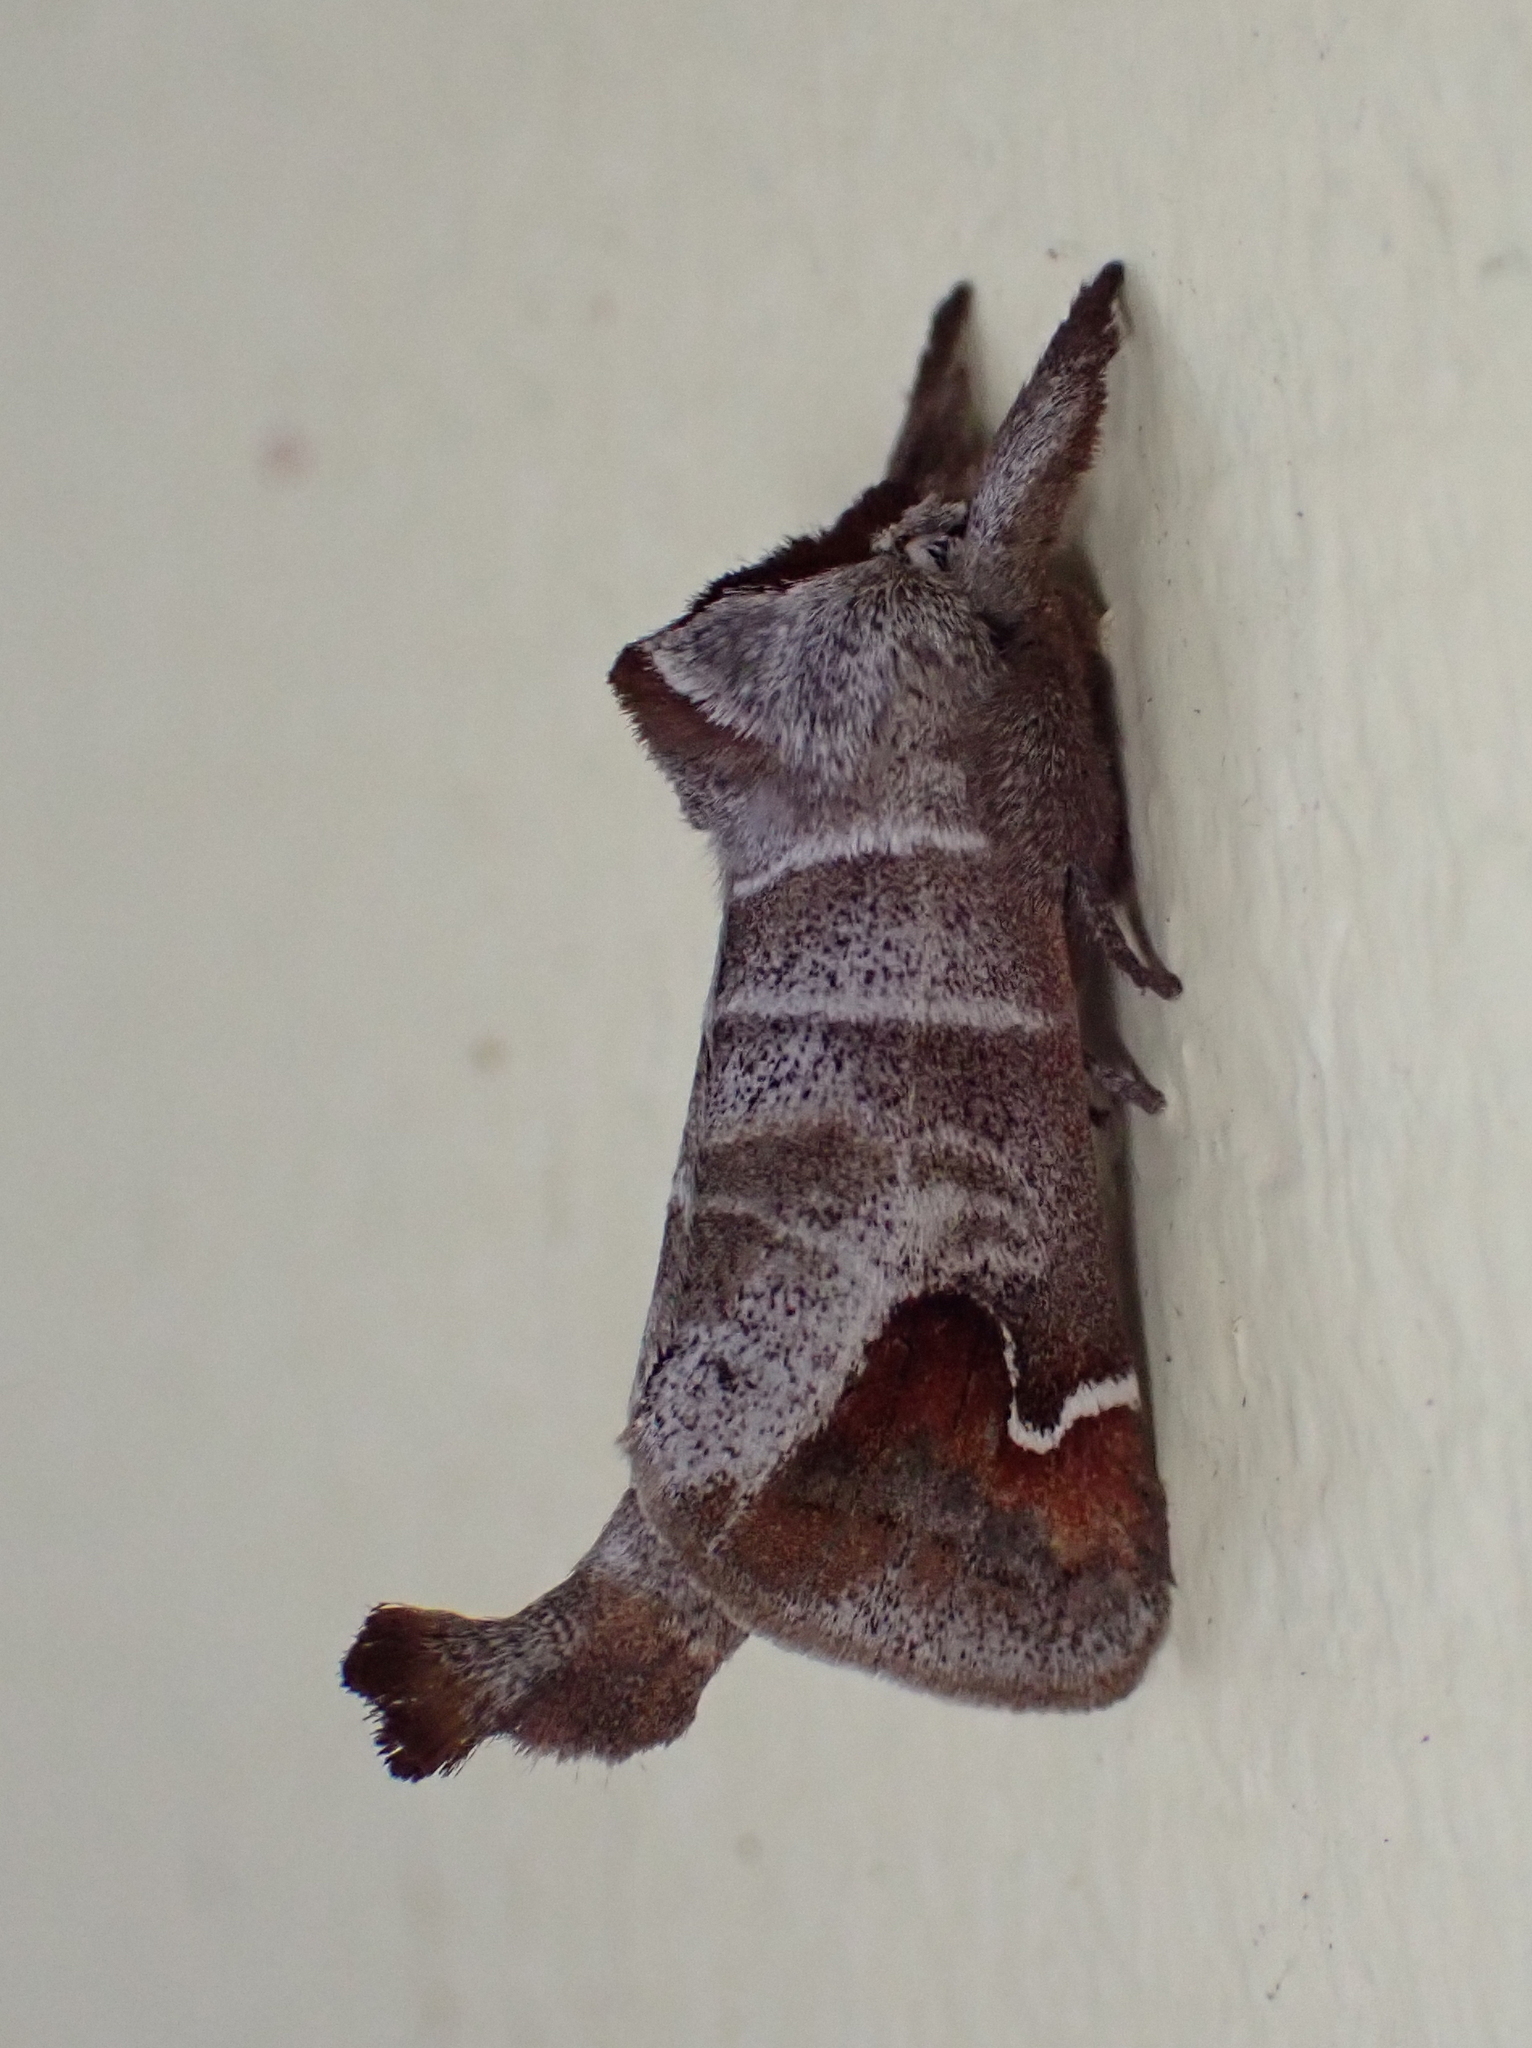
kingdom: Animalia
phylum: Arthropoda
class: Insecta
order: Lepidoptera
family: Notodontidae
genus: Clostera
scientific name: Clostera albosigma
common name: Sigmoid prominent
